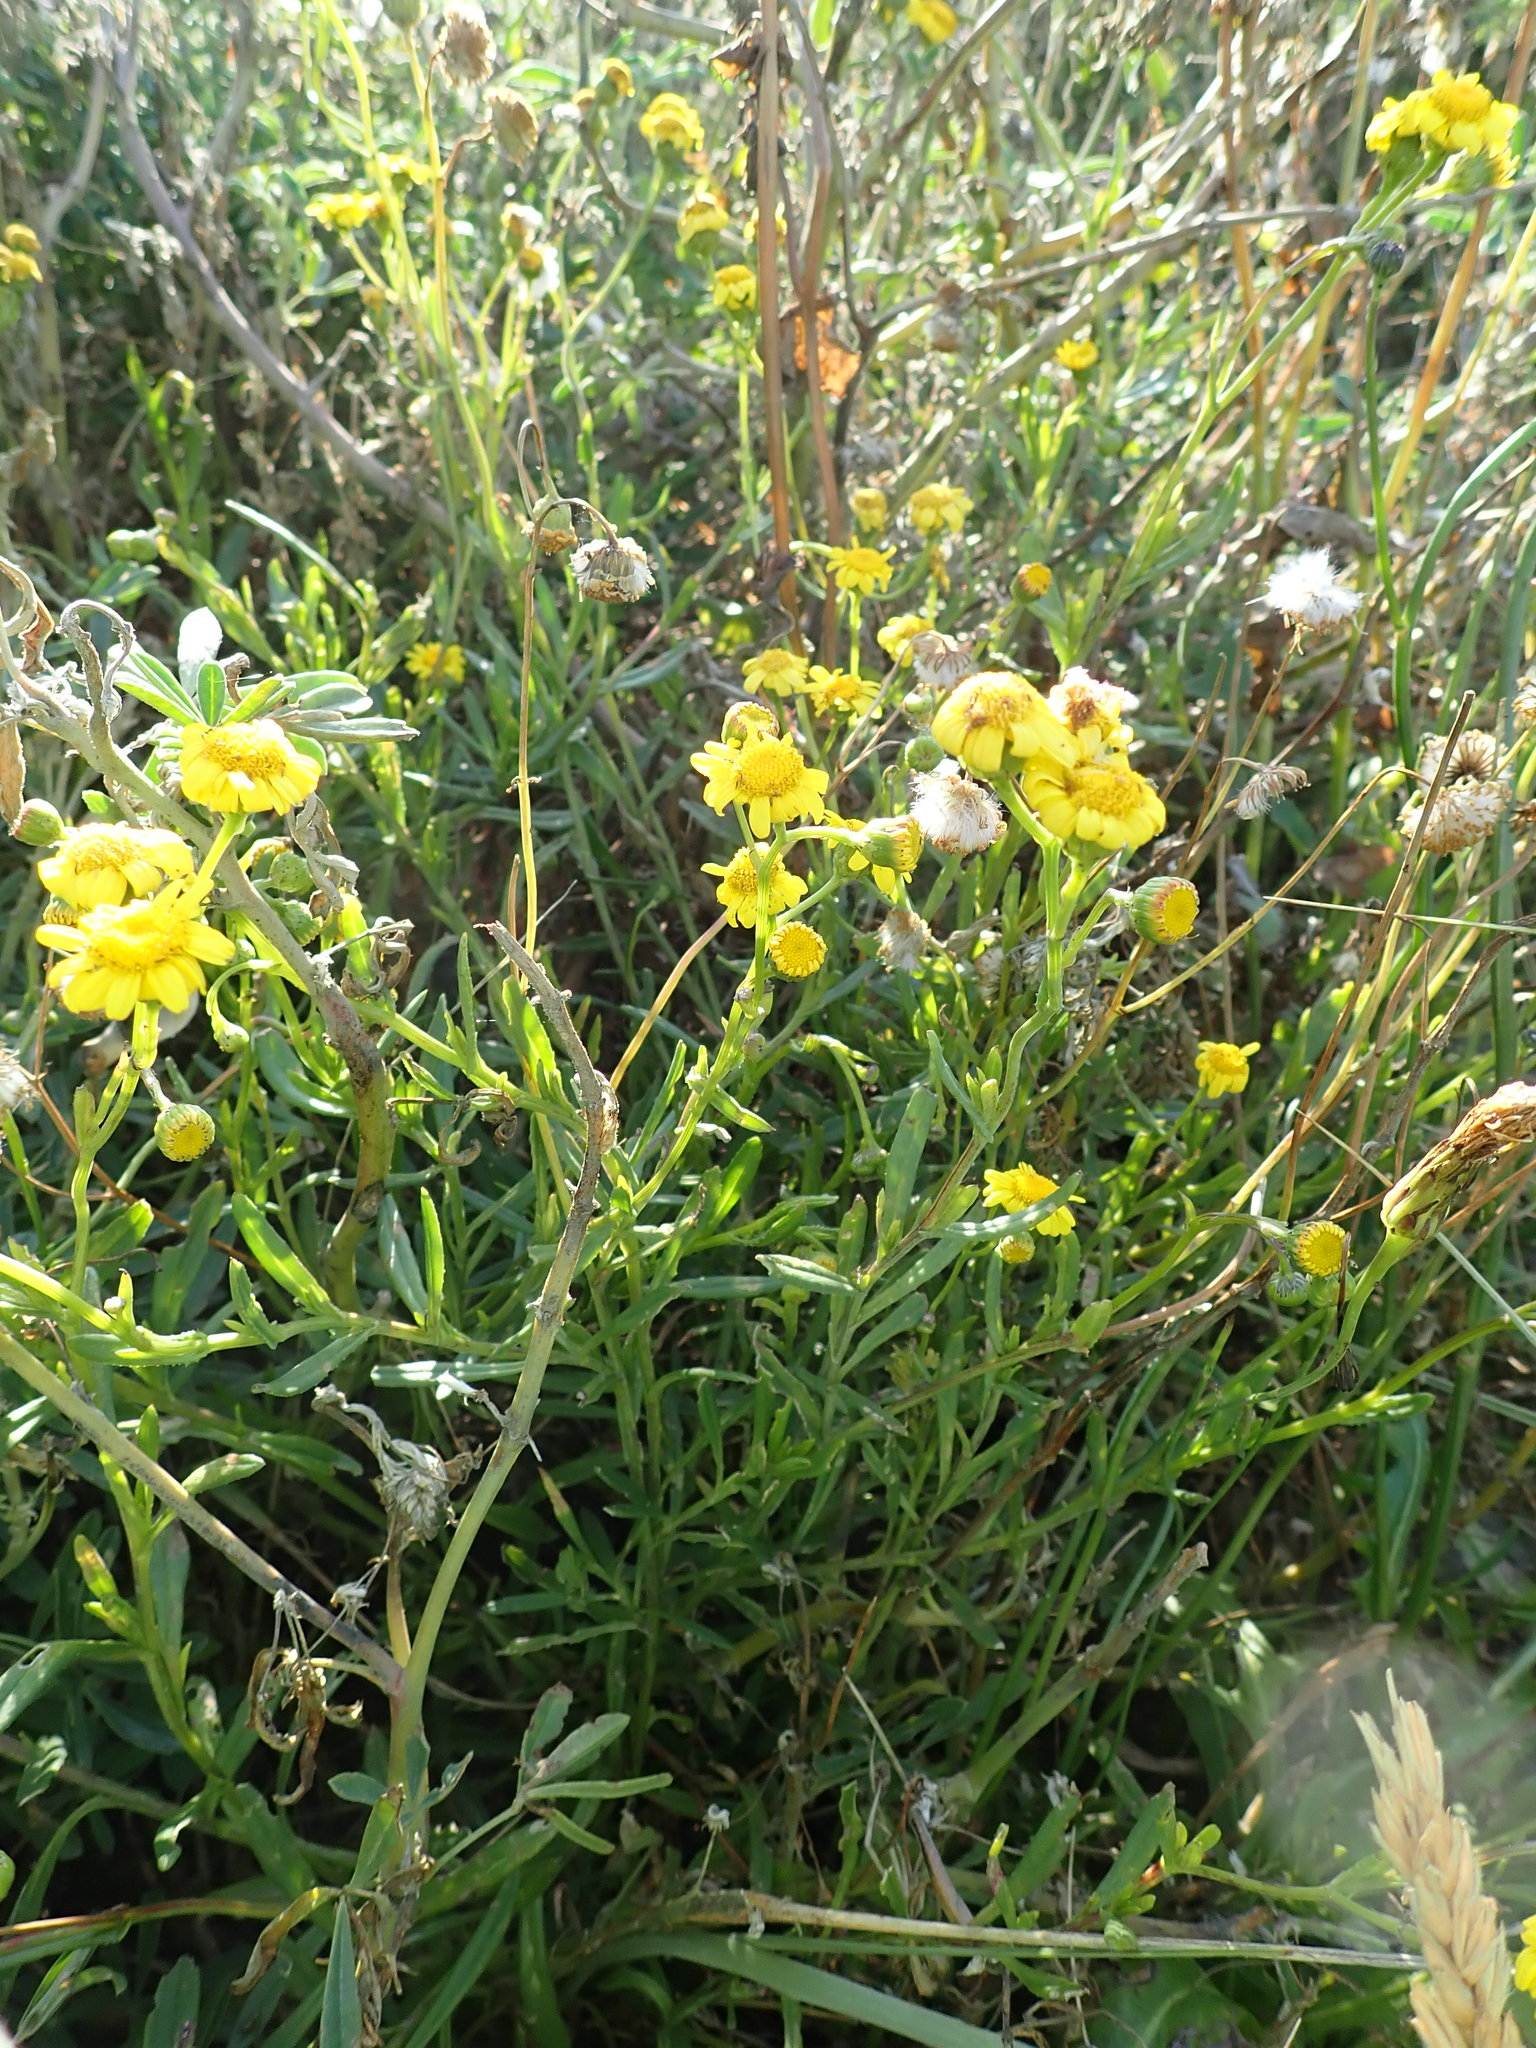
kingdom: Plantae
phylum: Tracheophyta
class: Magnoliopsida
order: Asterales
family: Asteraceae
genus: Senecio
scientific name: Senecio skirrhodon
